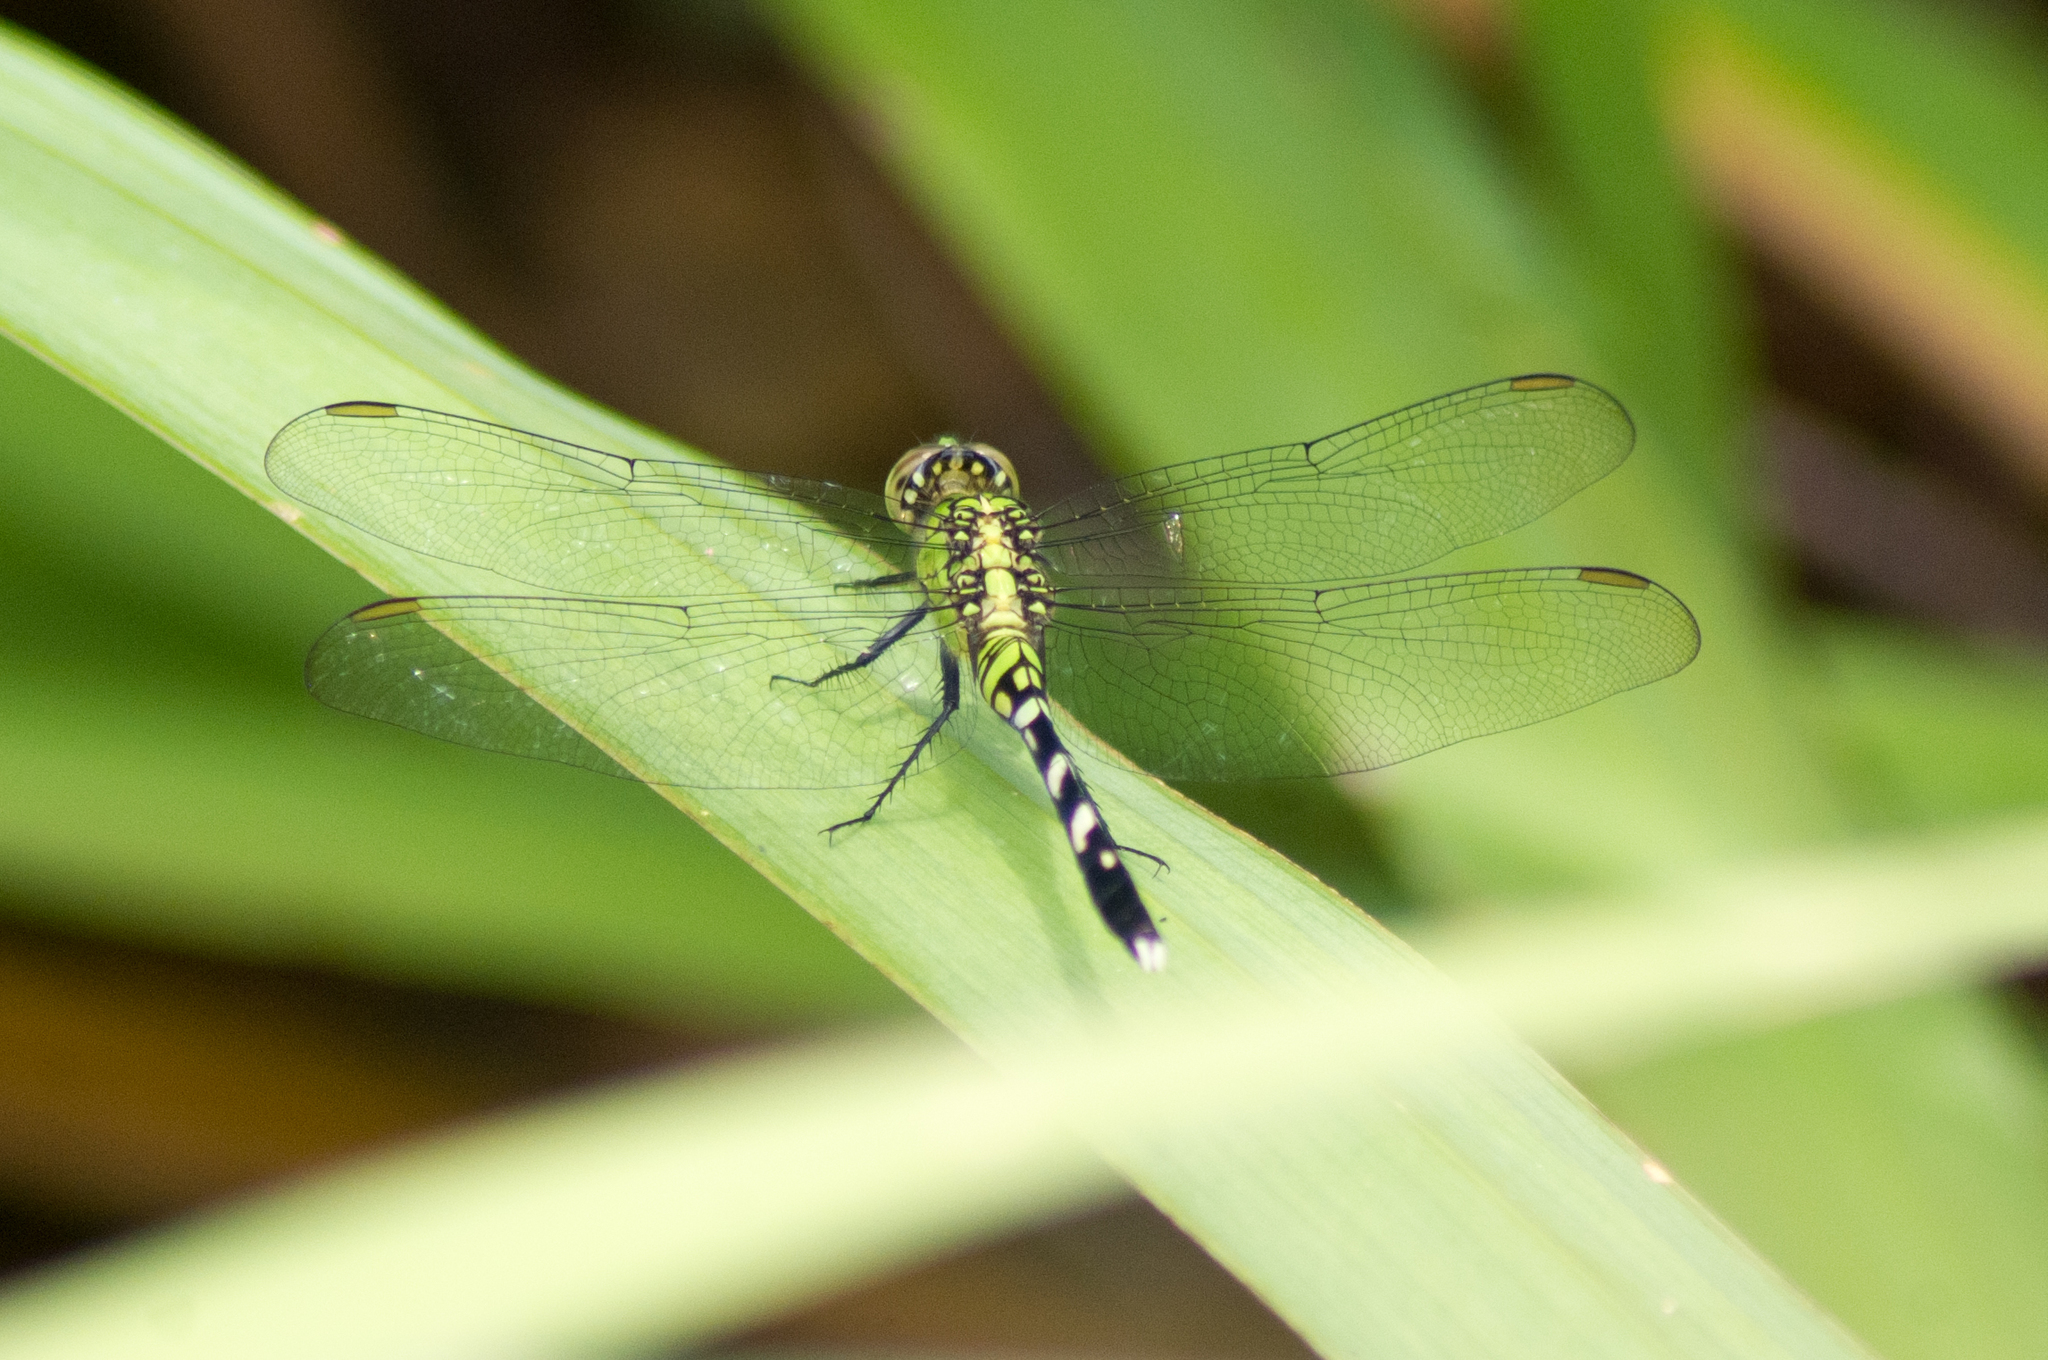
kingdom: Animalia
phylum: Arthropoda
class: Insecta
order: Odonata
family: Libellulidae
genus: Erythemis
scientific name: Erythemis simplicicollis
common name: Eastern pondhawk
